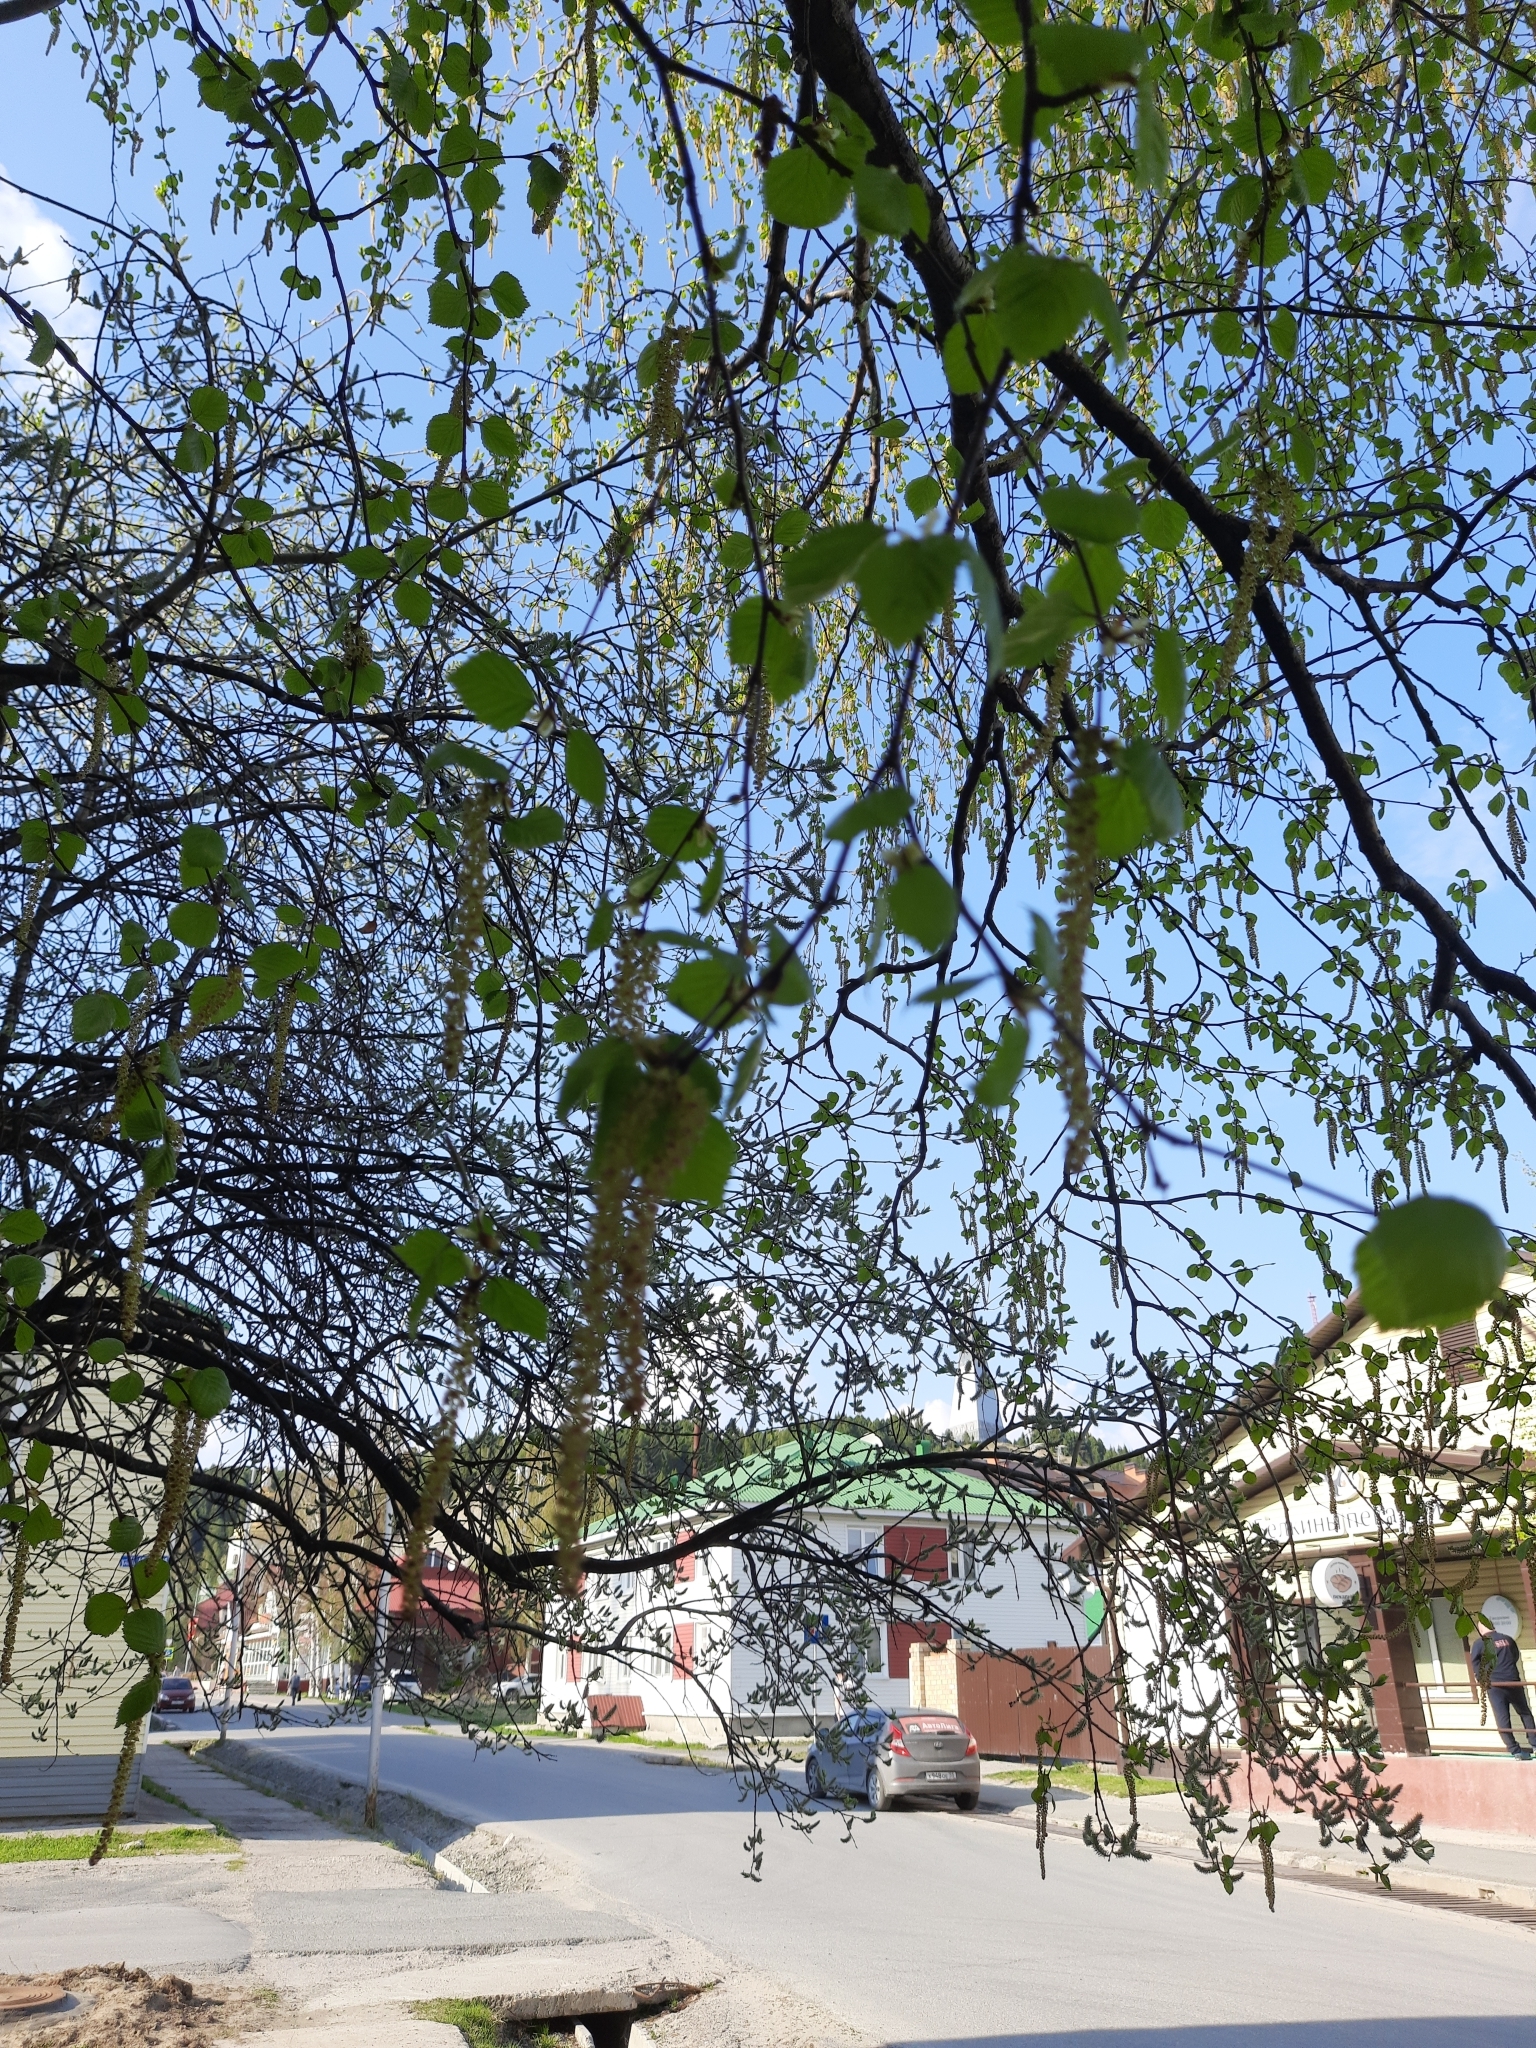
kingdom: Plantae
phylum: Tracheophyta
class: Magnoliopsida
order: Fagales
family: Betulaceae
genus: Betula
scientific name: Betula pendula
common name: Silver birch
